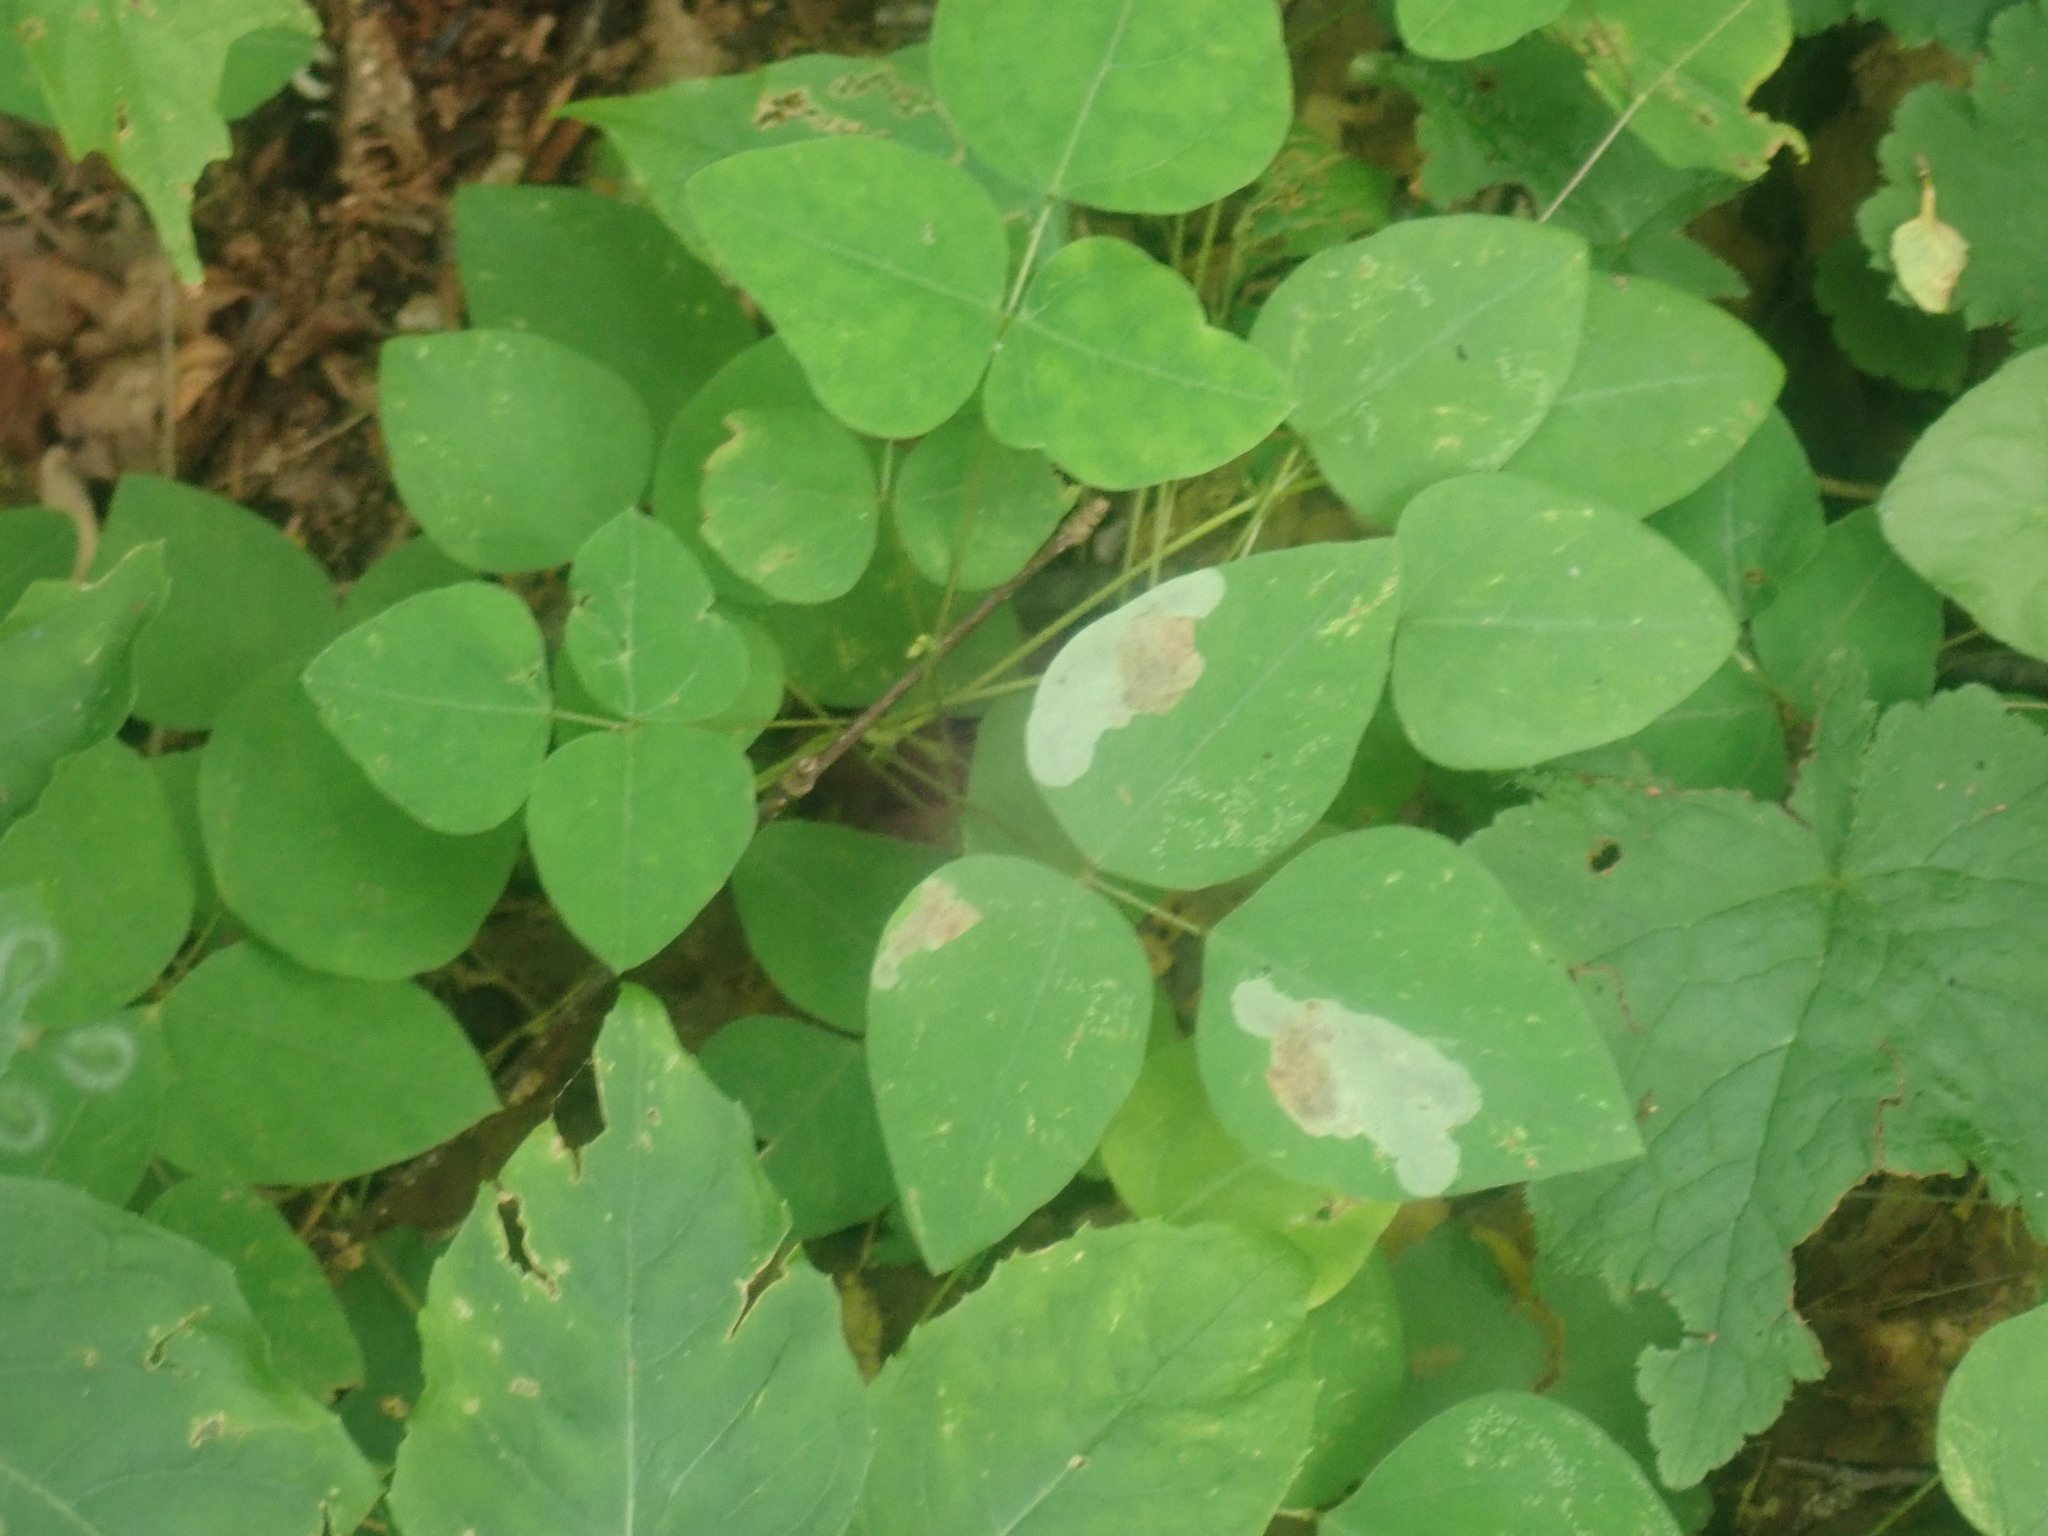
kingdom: Plantae
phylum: Tracheophyta
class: Magnoliopsida
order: Fabales
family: Fabaceae
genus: Amphicarpaea
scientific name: Amphicarpaea bracteata
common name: American hog peanut
